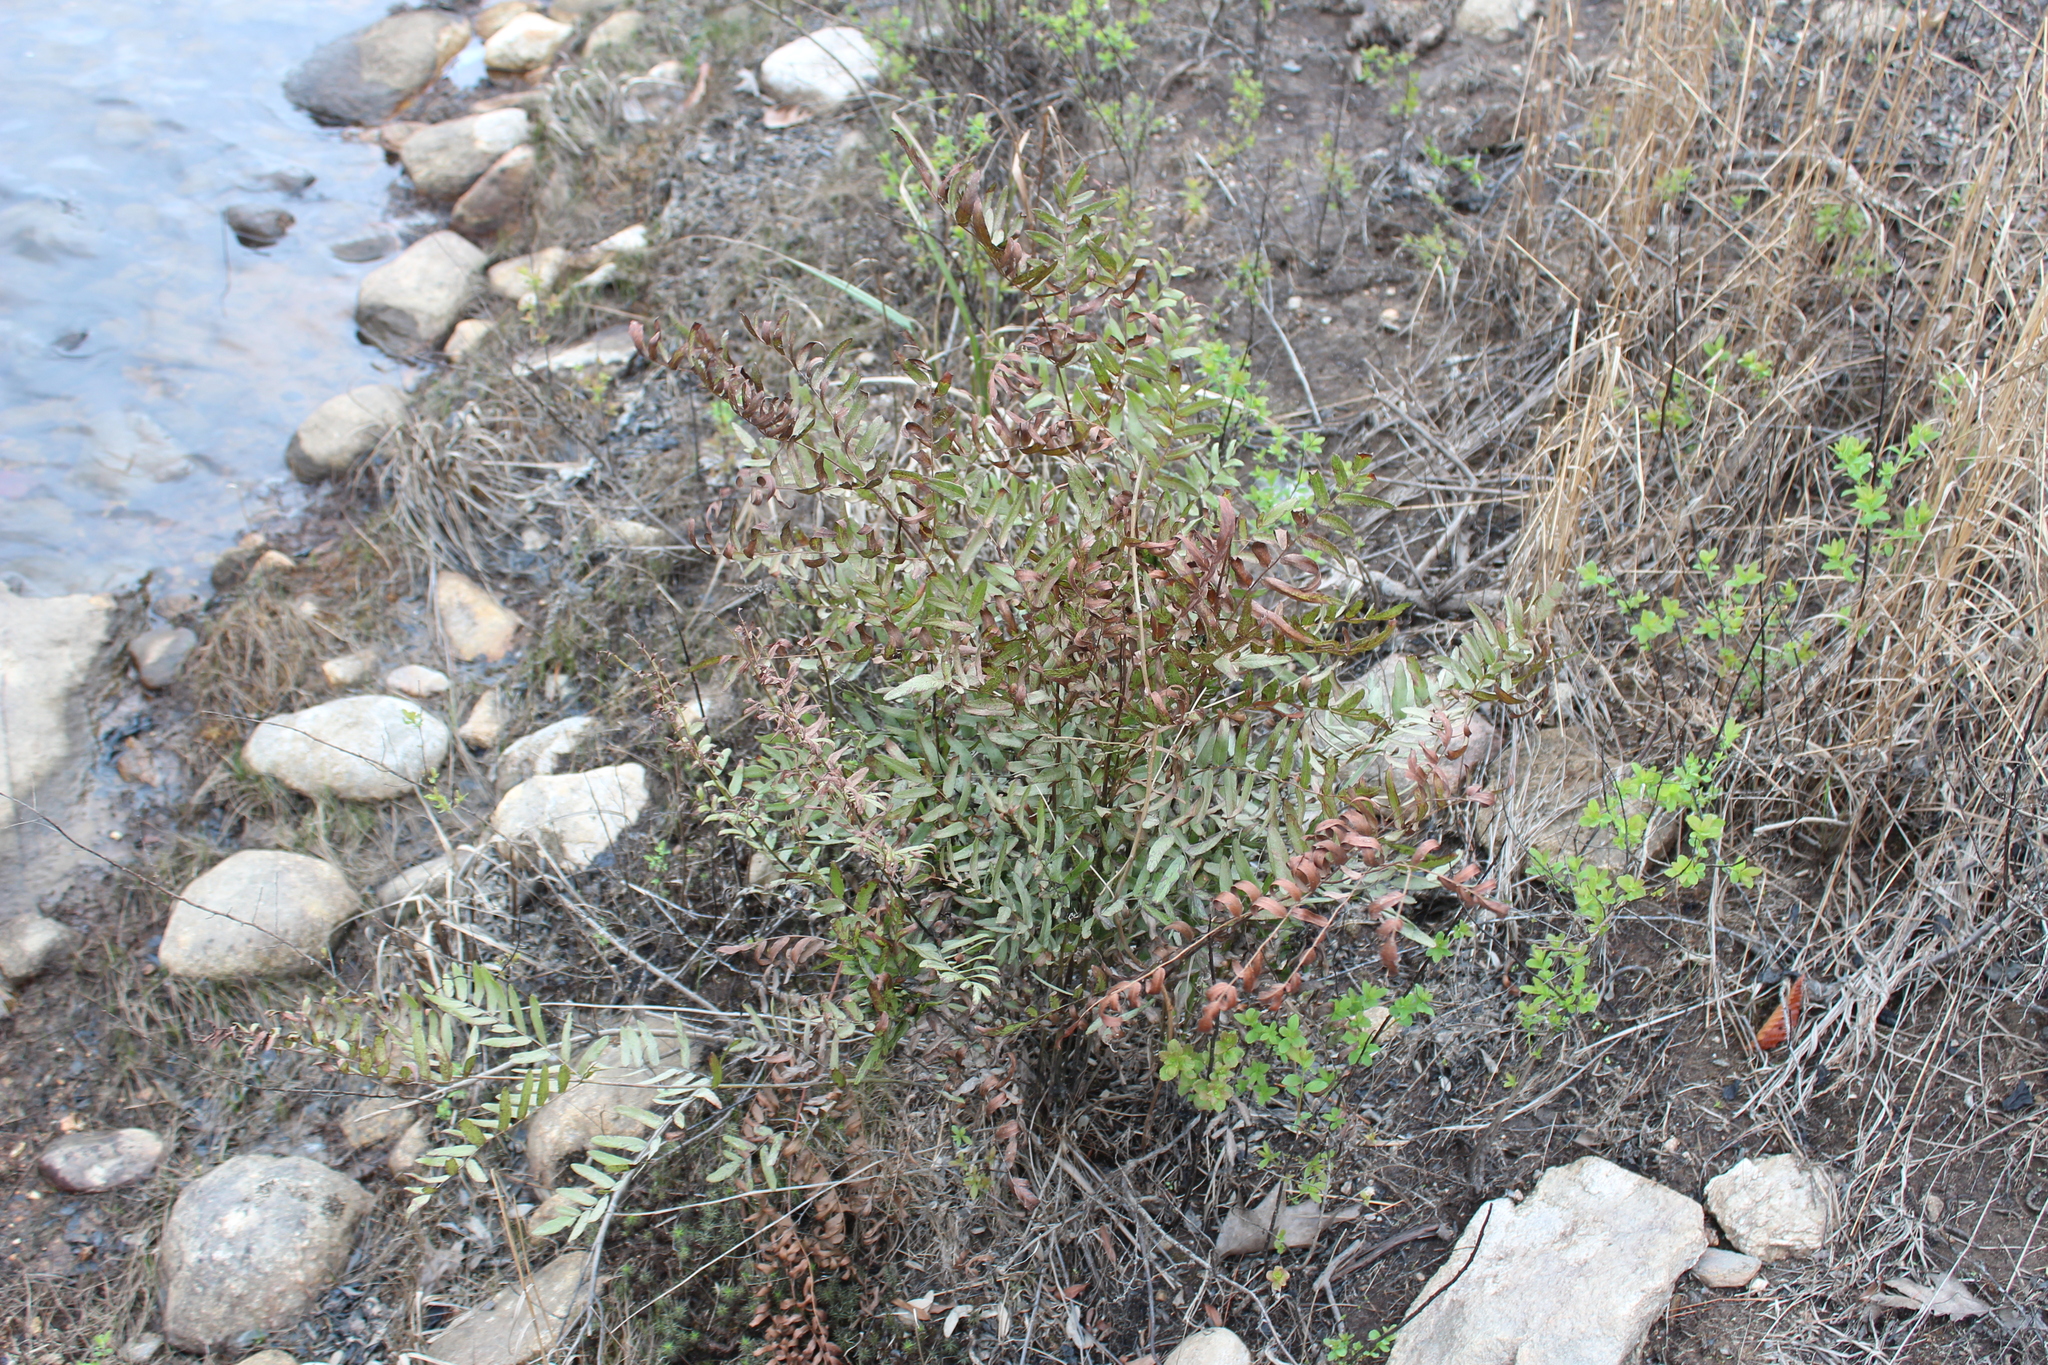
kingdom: Plantae
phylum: Tracheophyta
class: Polypodiopsida
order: Osmundales
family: Osmundaceae
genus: Osmunda
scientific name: Osmunda spectabilis
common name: American royal fern
